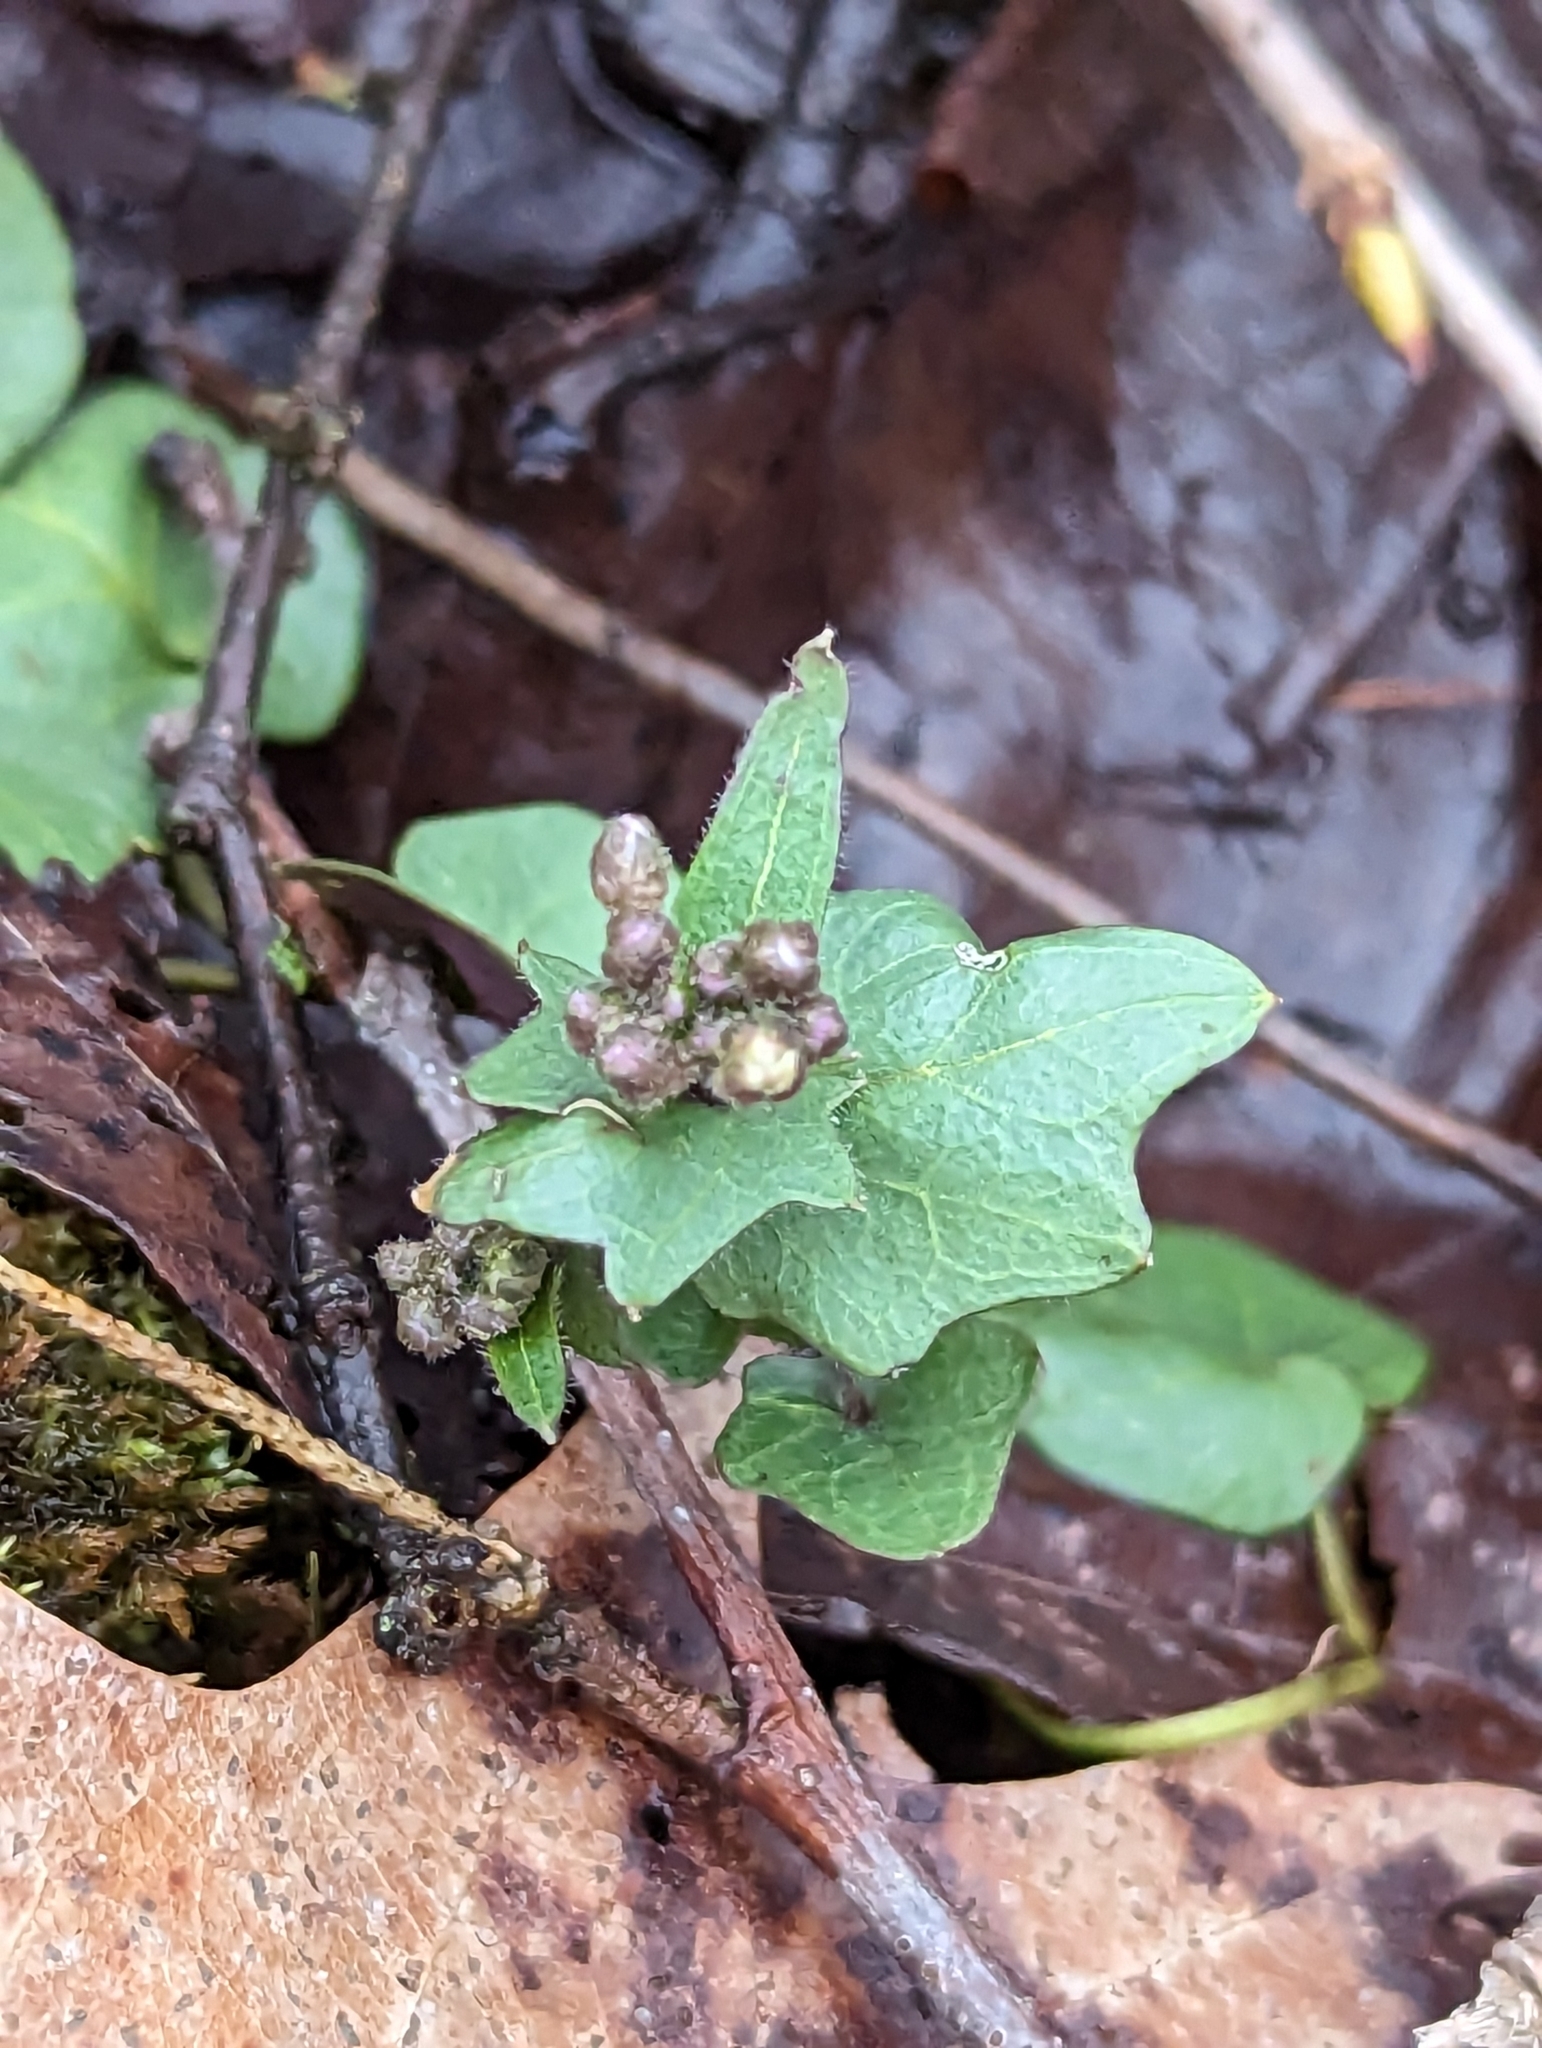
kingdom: Plantae
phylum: Tracheophyta
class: Magnoliopsida
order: Brassicales
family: Brassicaceae
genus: Cardamine
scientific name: Cardamine douglassii
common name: Purple cress
